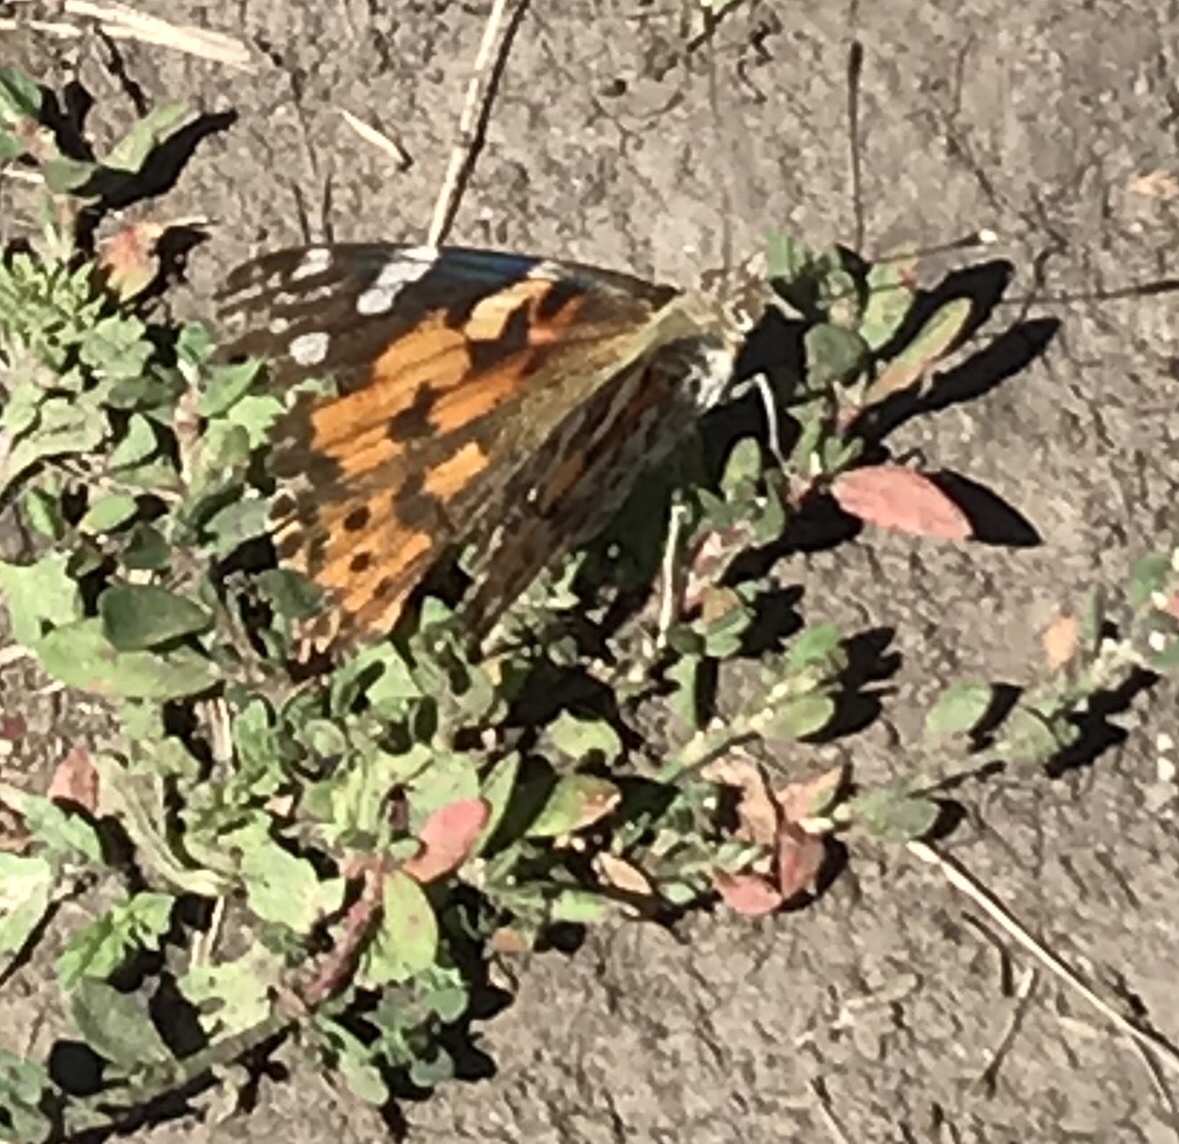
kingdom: Animalia
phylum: Arthropoda
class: Insecta
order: Lepidoptera
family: Nymphalidae
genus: Vanessa
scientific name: Vanessa cardui
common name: Painted lady
